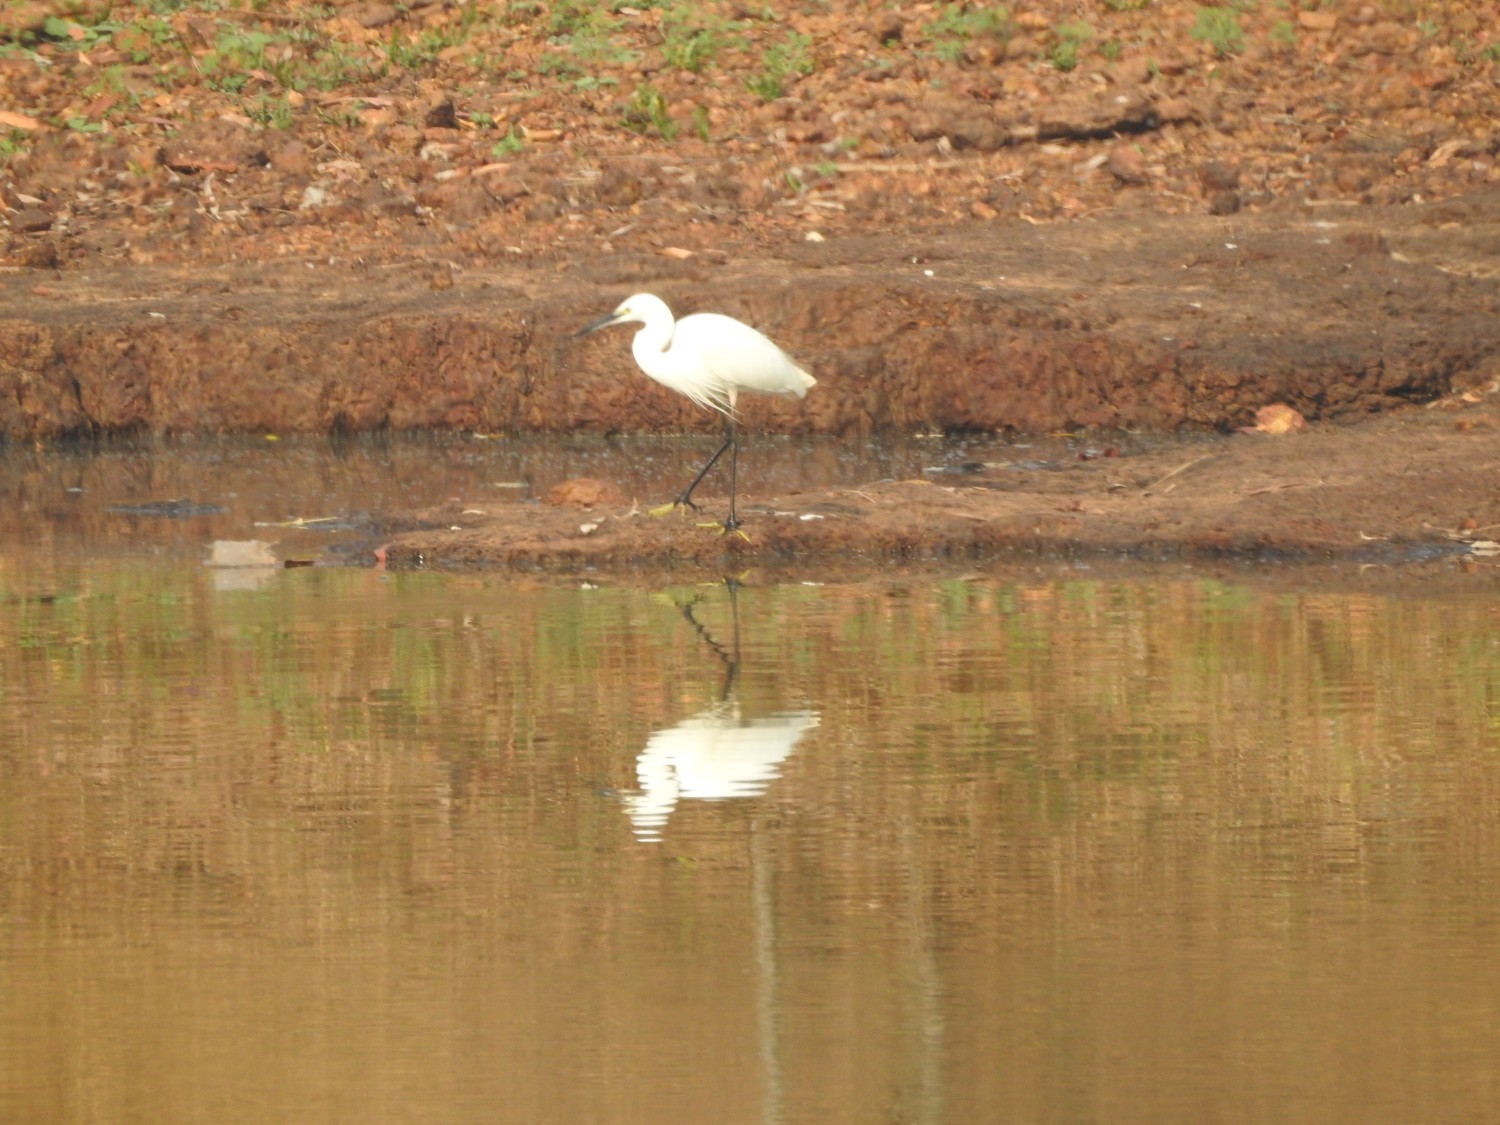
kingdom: Animalia
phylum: Chordata
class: Aves
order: Pelecaniformes
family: Ardeidae
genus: Egretta
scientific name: Egretta garzetta
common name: Little egret
